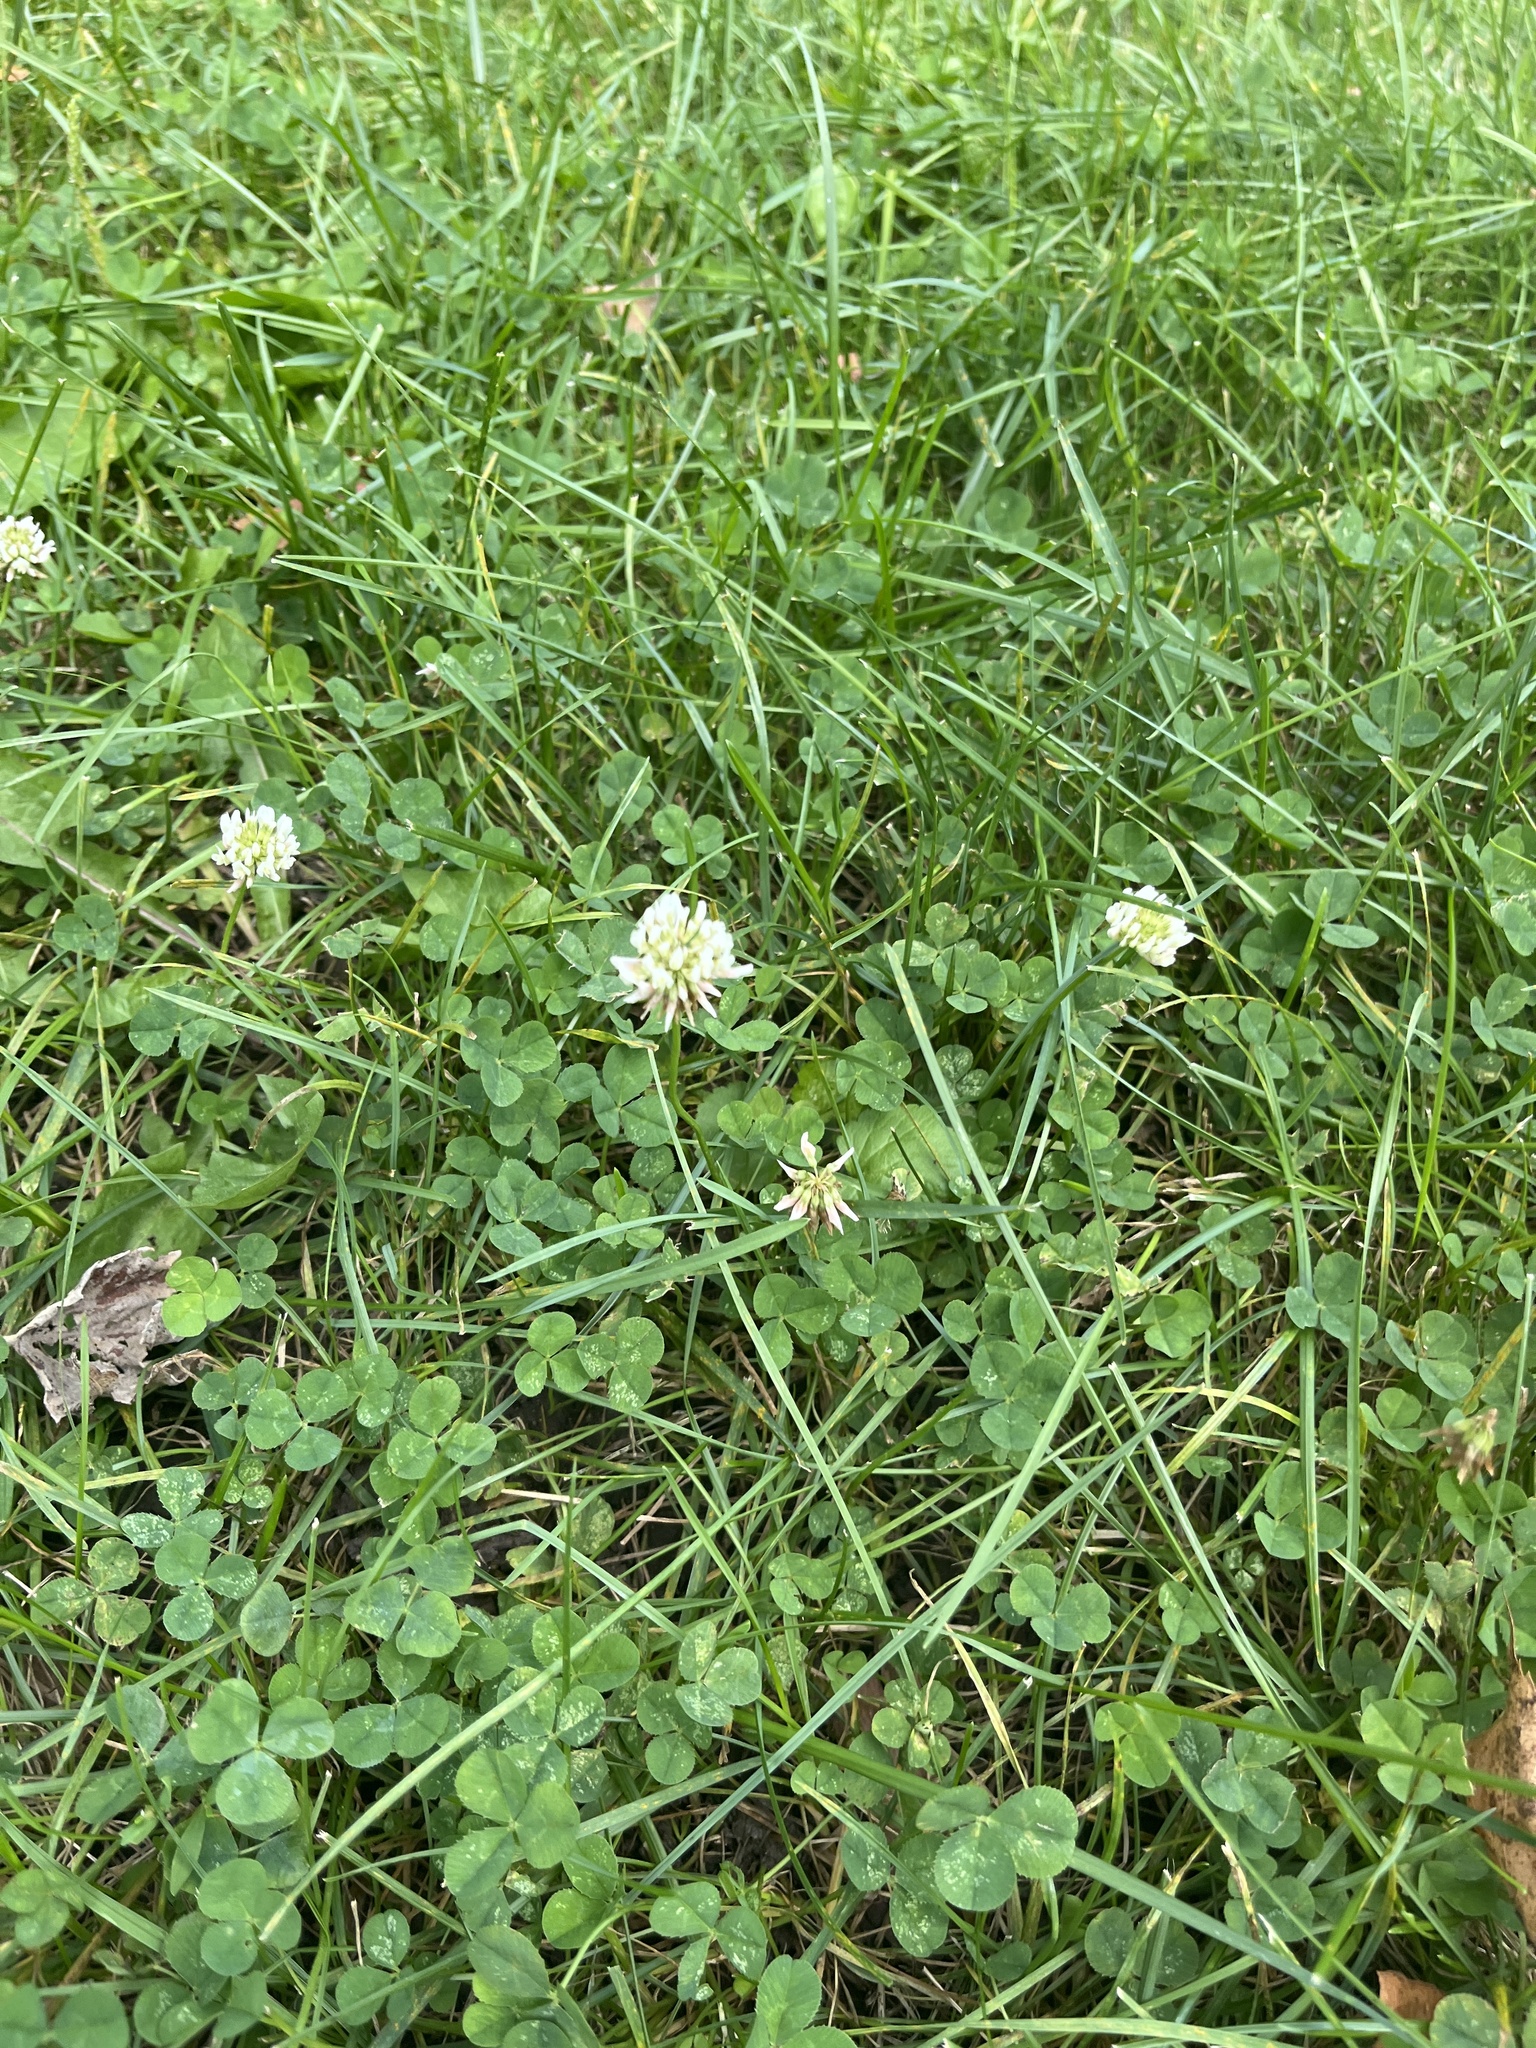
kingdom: Plantae
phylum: Tracheophyta
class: Magnoliopsida
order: Fabales
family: Fabaceae
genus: Trifolium
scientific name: Trifolium repens
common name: White clover
